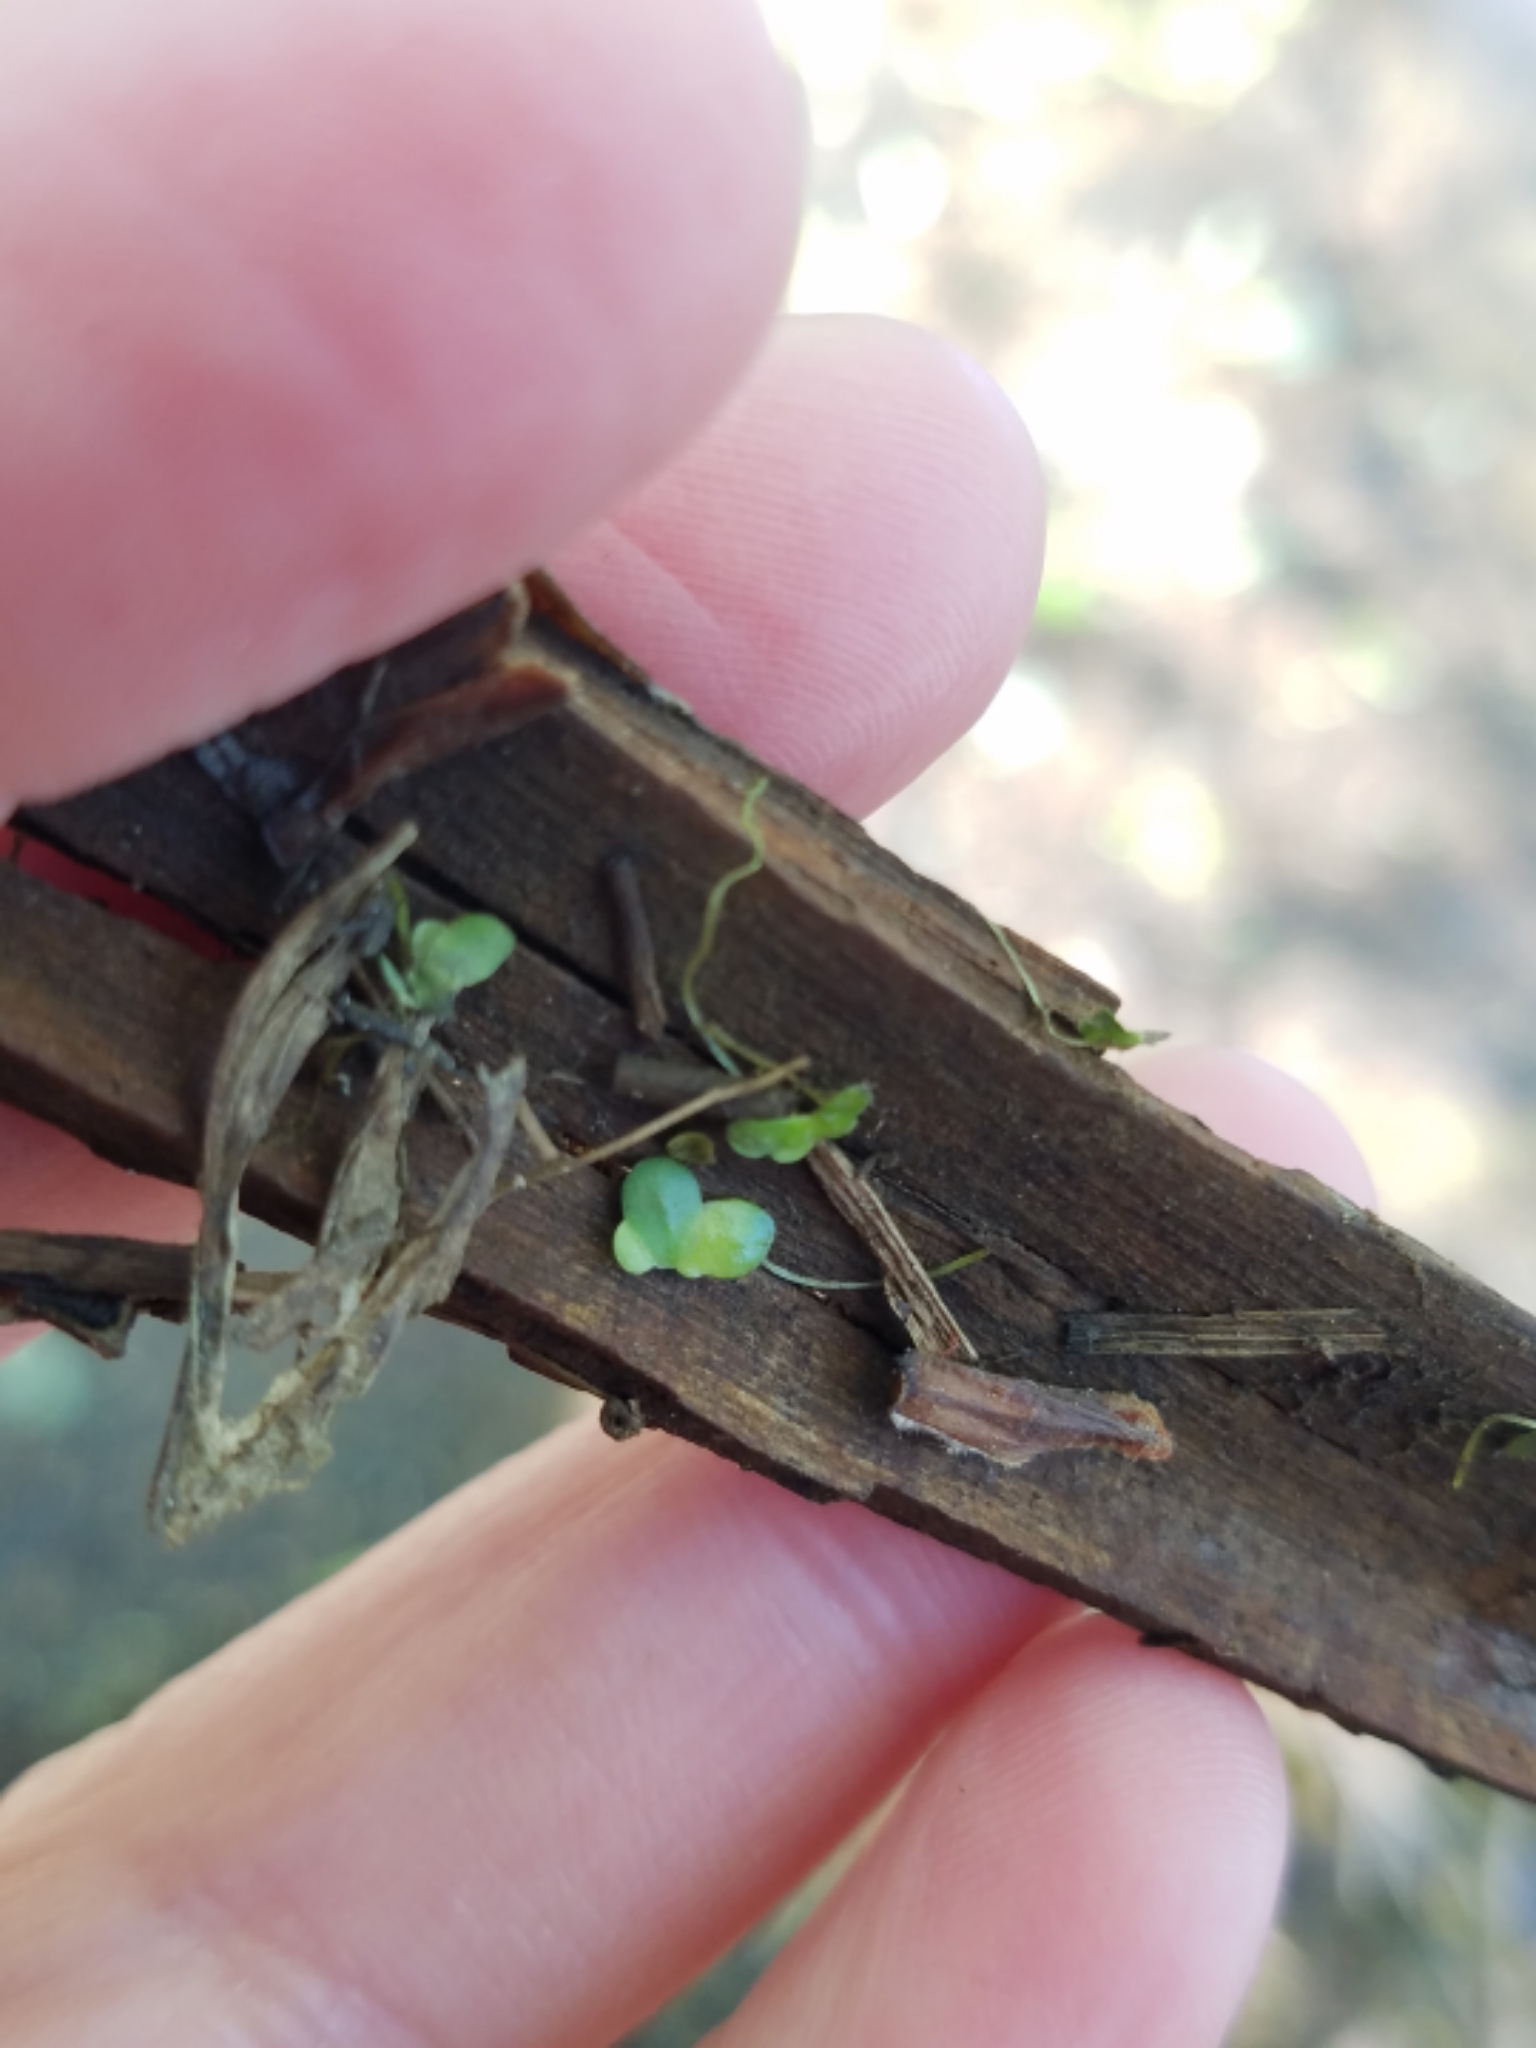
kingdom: Plantae
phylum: Tracheophyta
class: Liliopsida
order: Alismatales
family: Araceae
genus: Lemna
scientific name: Lemna minor
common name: Common duckweed
